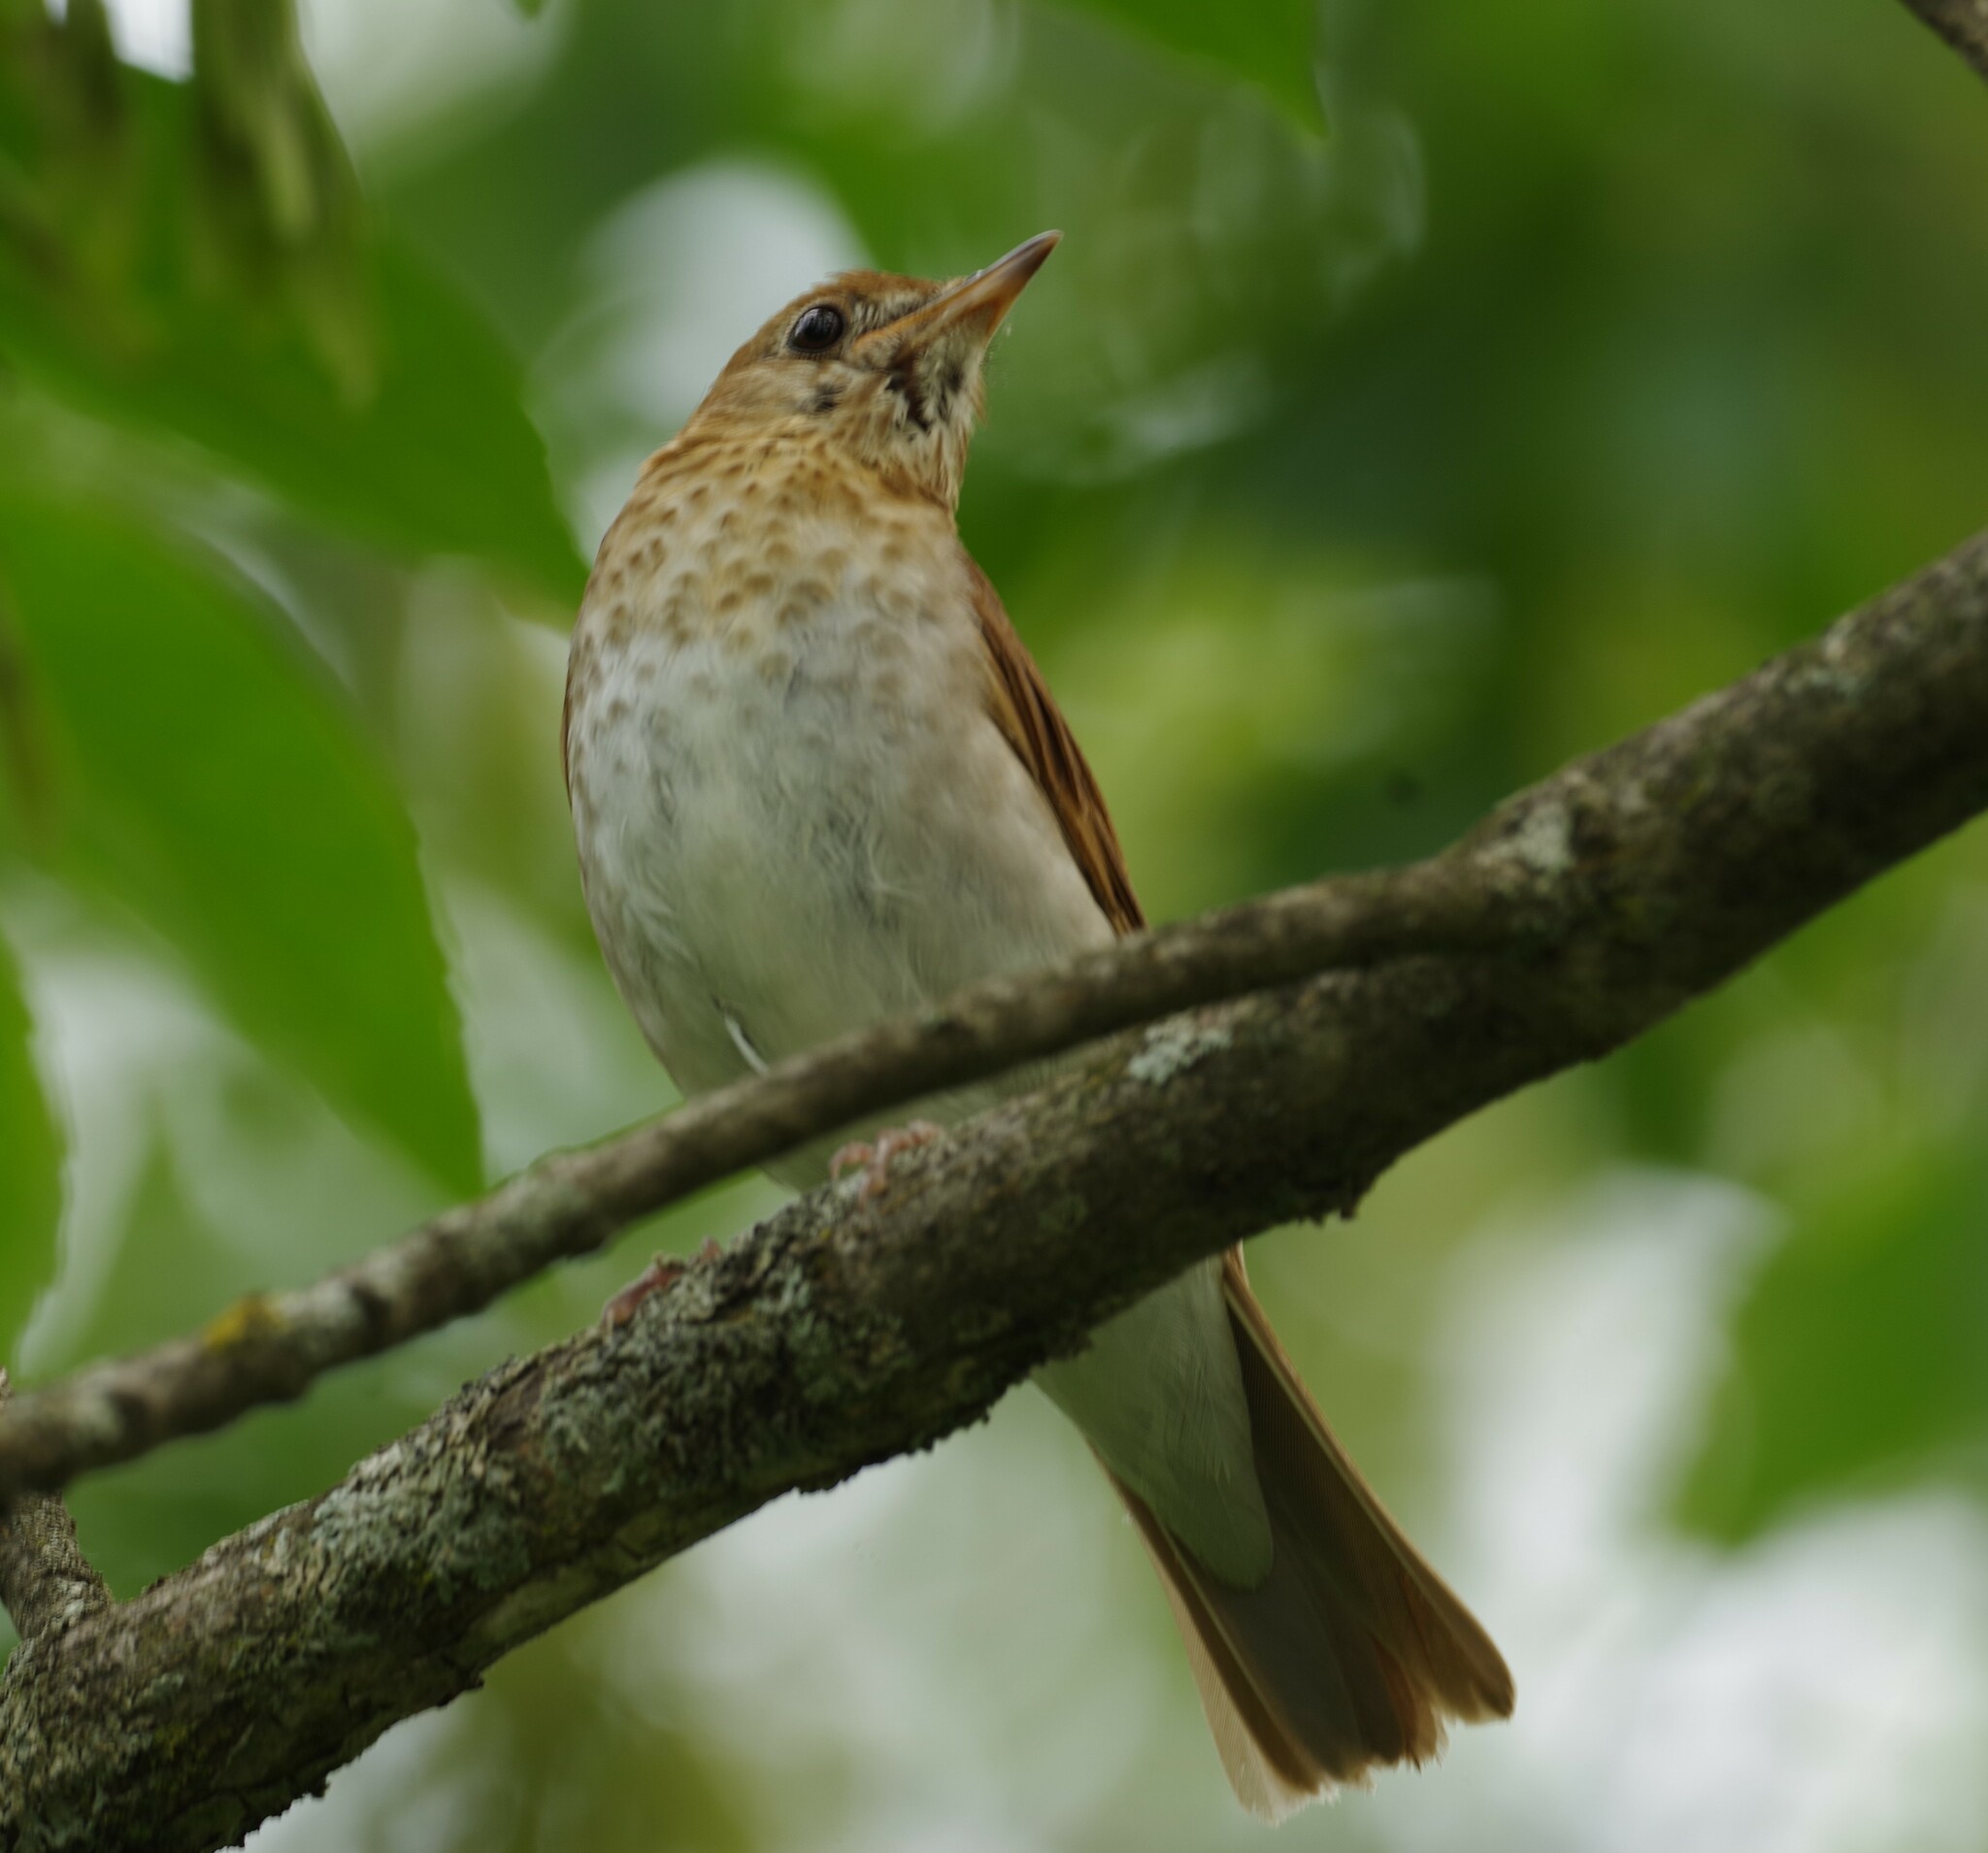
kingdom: Animalia
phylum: Chordata
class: Aves
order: Passeriformes
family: Turdidae
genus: Catharus
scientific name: Catharus fuscescens
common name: Veery
